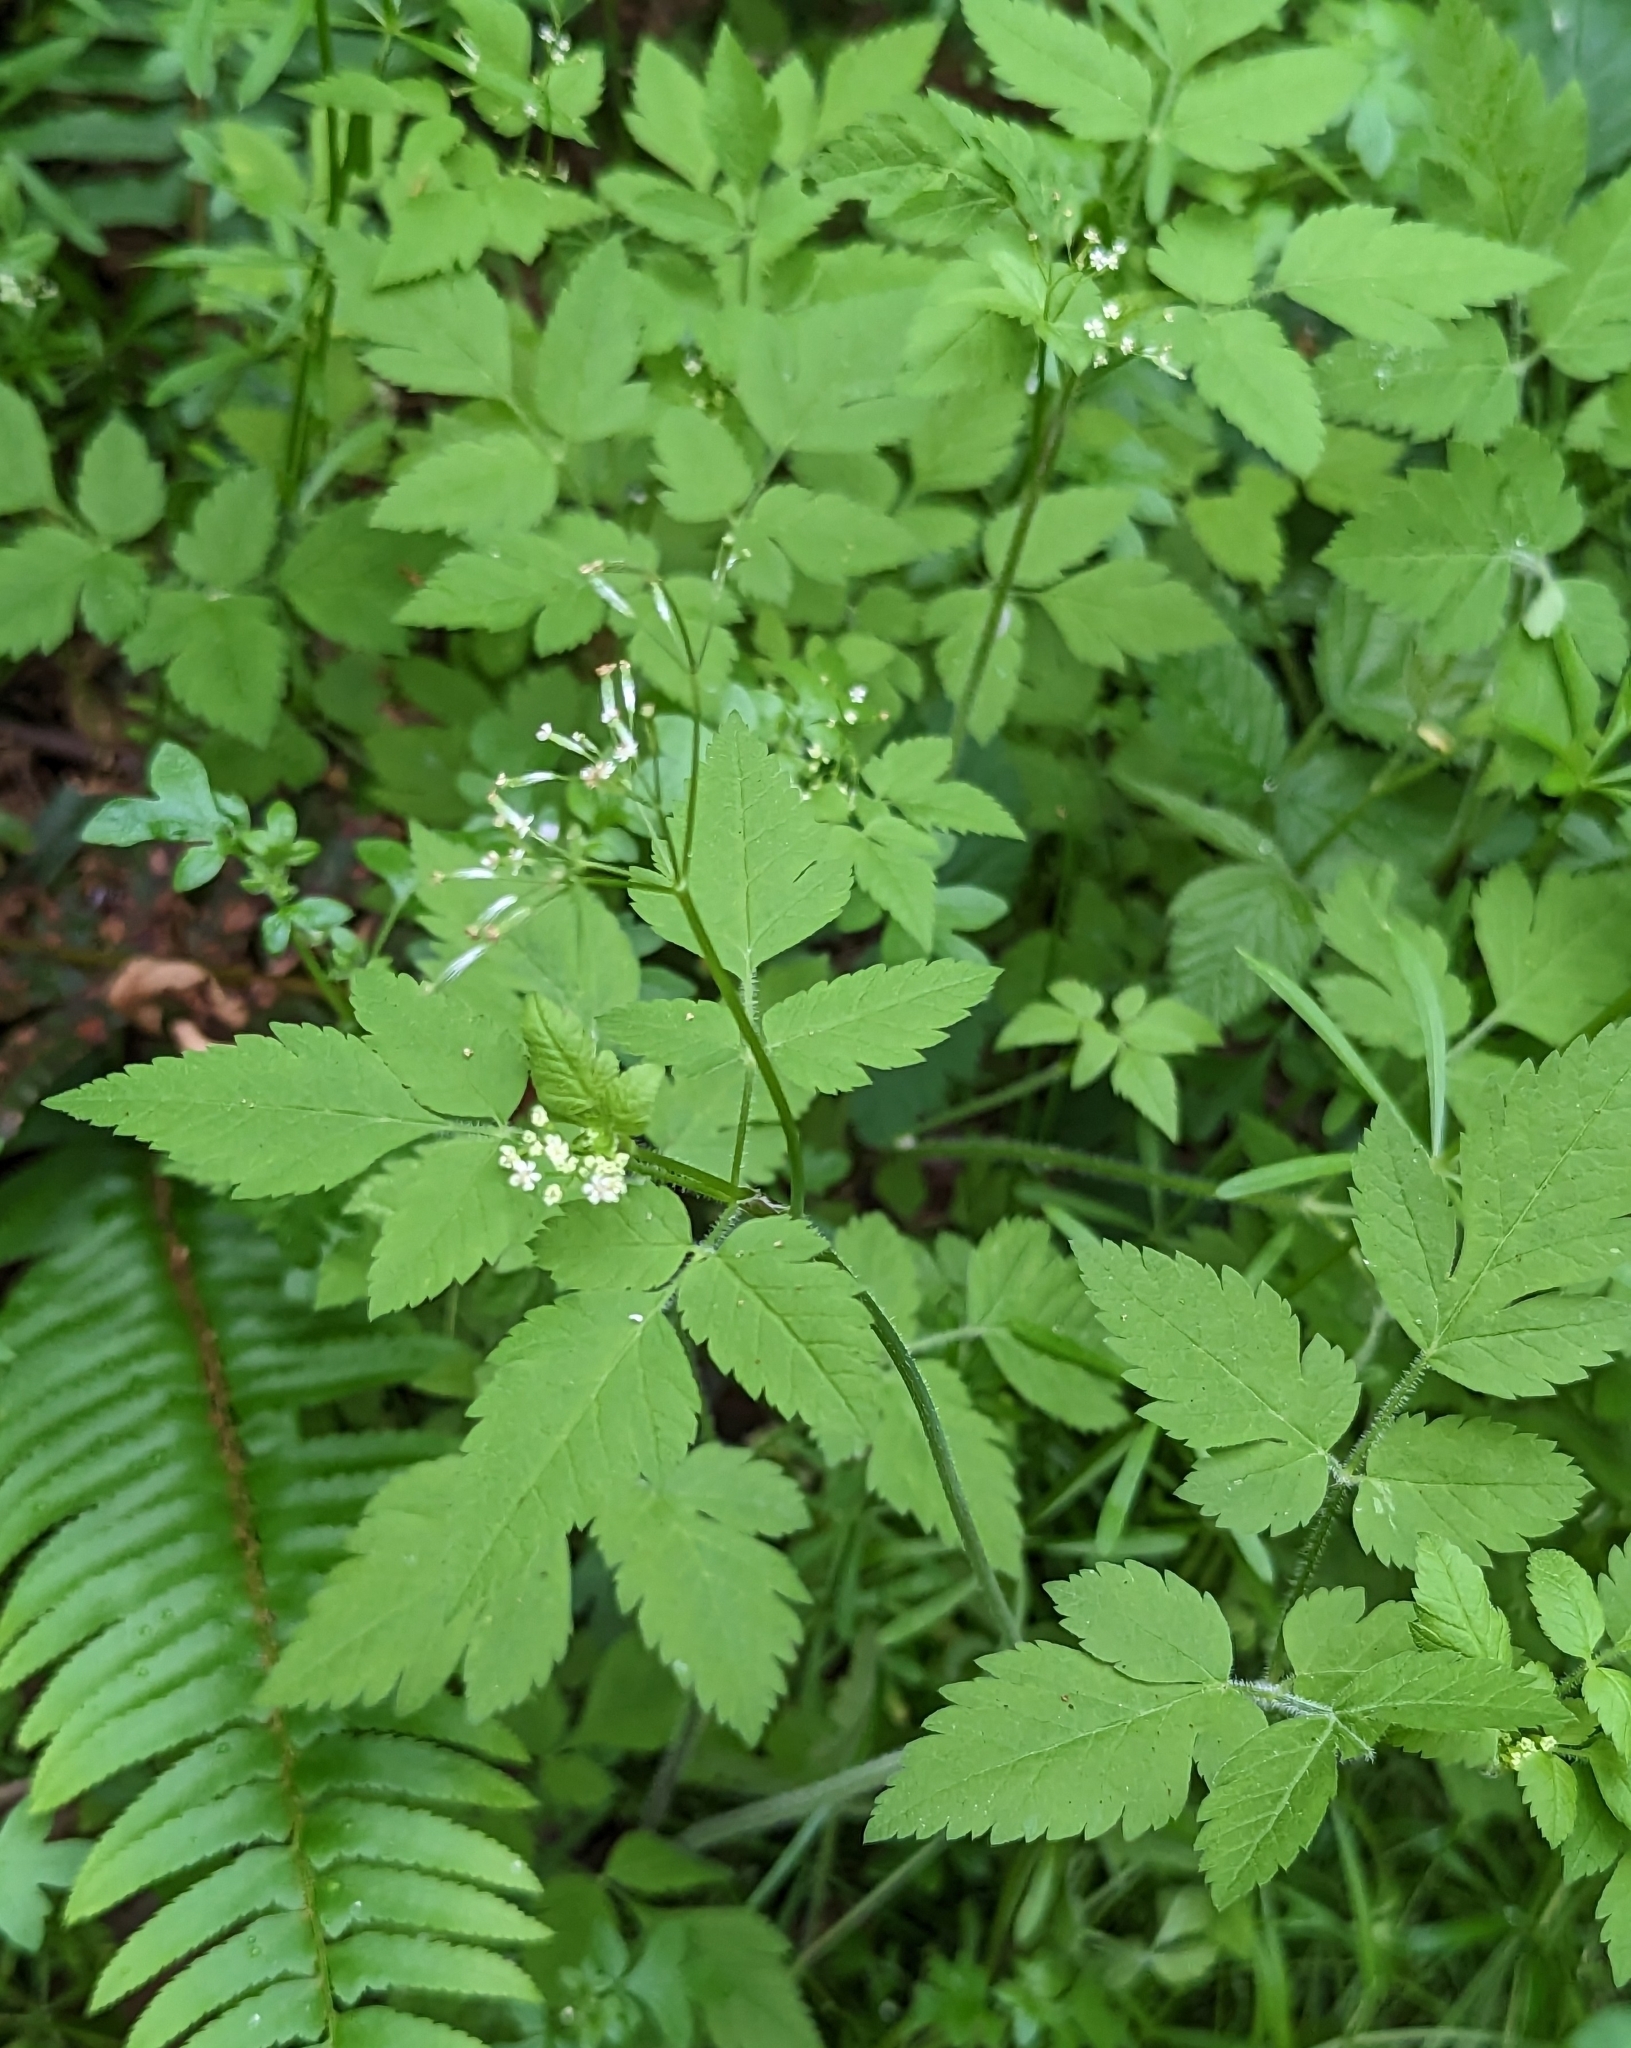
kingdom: Plantae
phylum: Tracheophyta
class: Magnoliopsida
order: Apiales
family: Apiaceae
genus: Osmorhiza
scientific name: Osmorhiza berteroi
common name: Mountain sweet cicely
